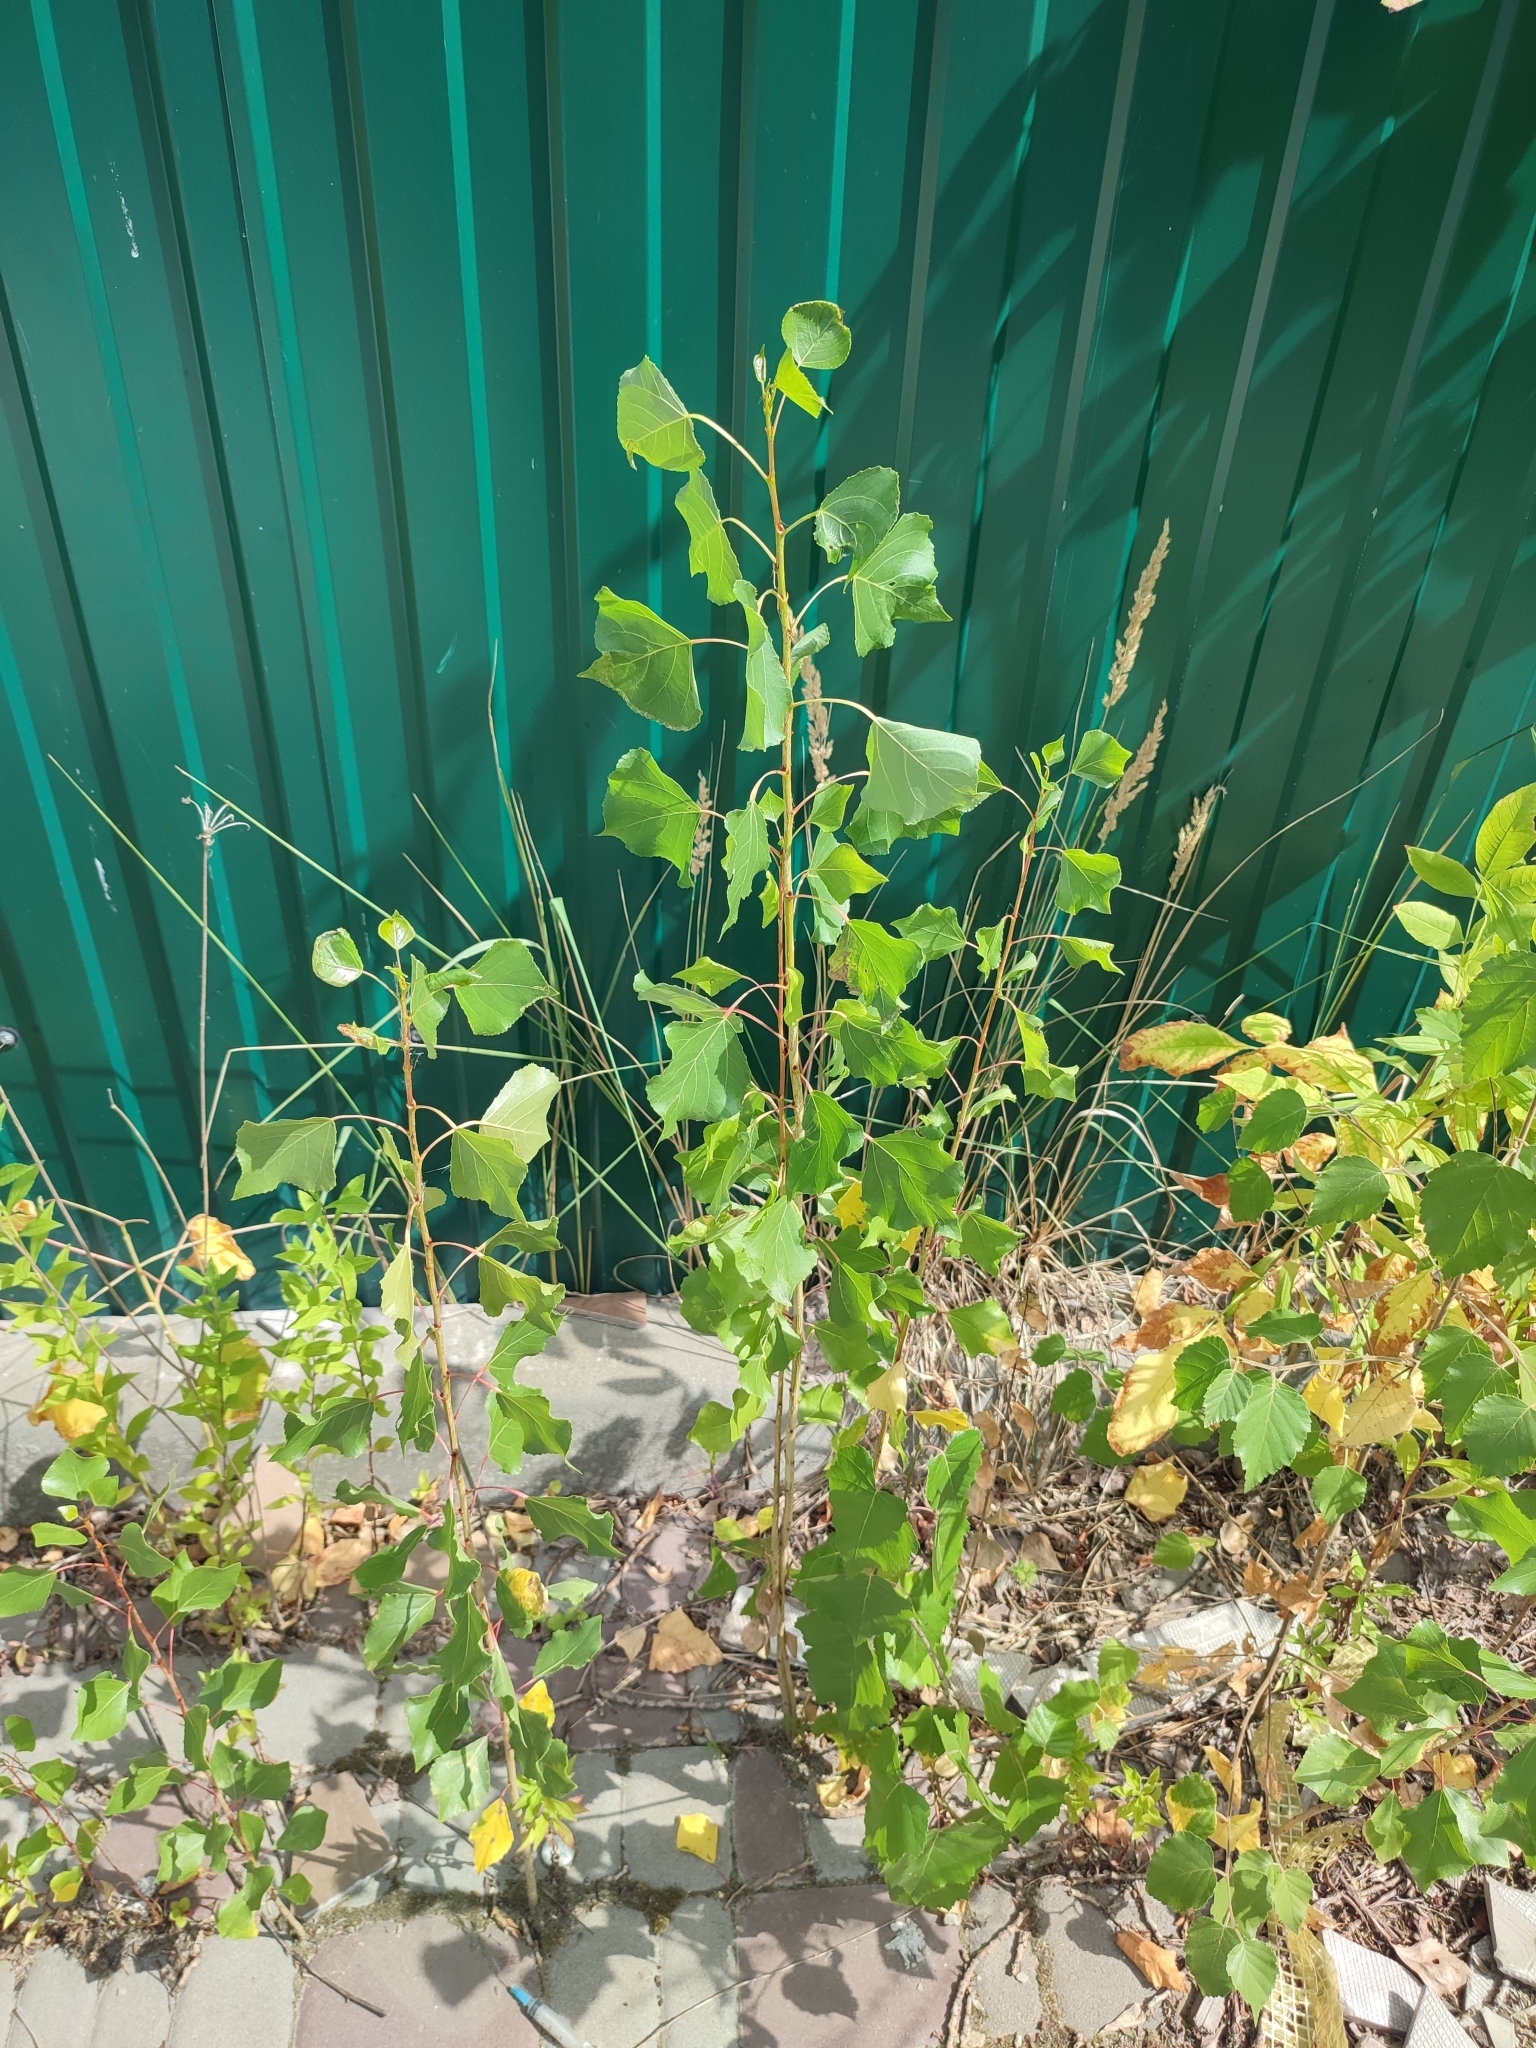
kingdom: Plantae
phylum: Tracheophyta
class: Magnoliopsida
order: Malpighiales
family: Salicaceae
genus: Populus
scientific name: Populus nigra
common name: Black poplar
